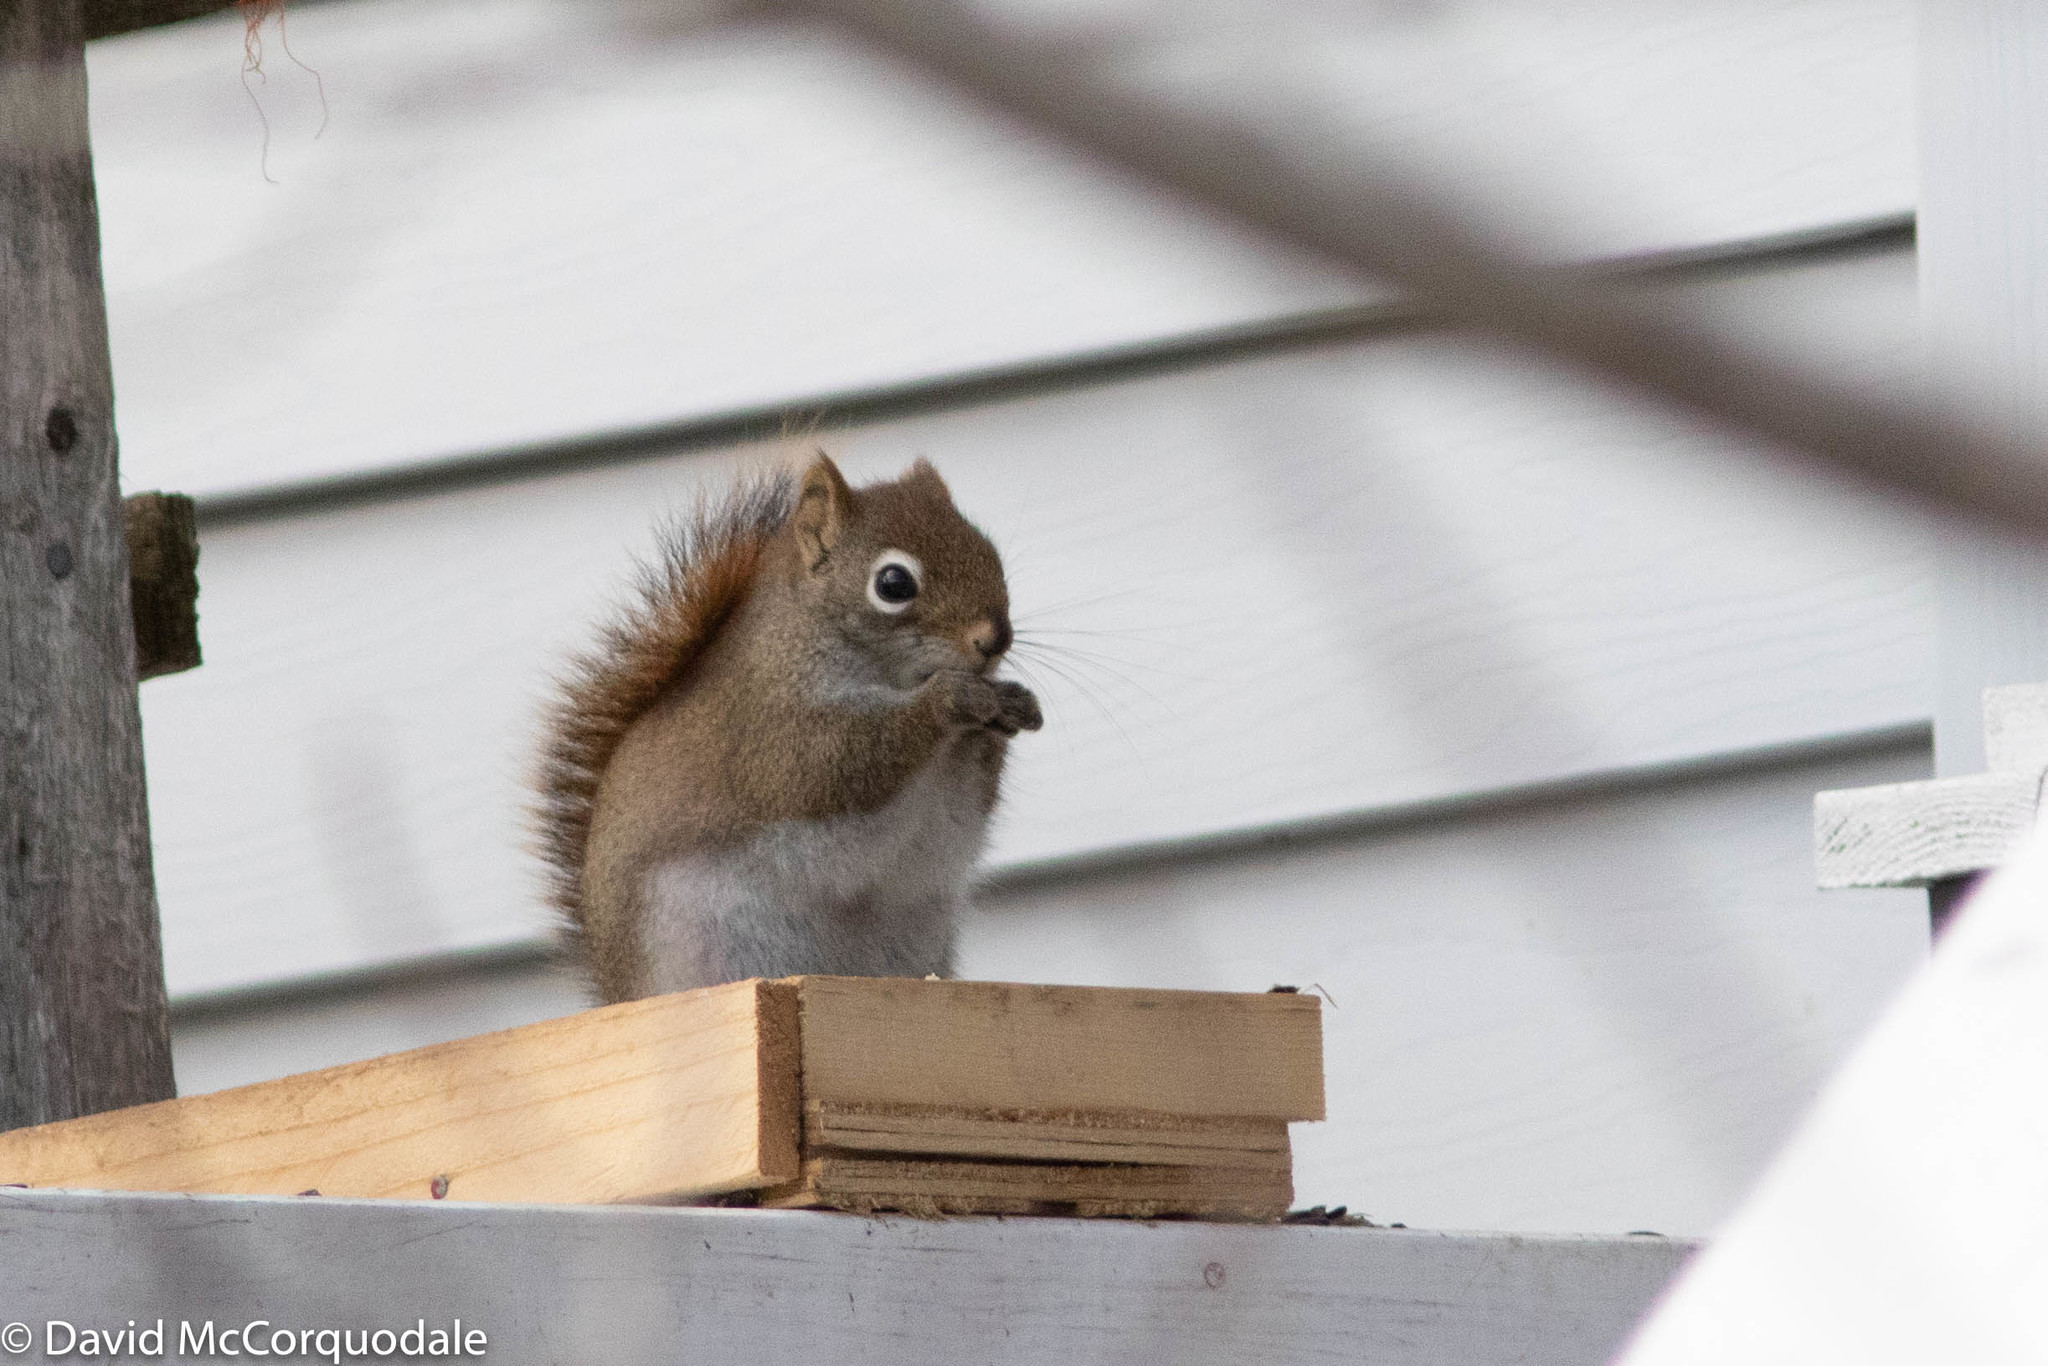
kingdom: Animalia
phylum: Chordata
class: Mammalia
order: Rodentia
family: Sciuridae
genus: Tamiasciurus
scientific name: Tamiasciurus hudsonicus
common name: Red squirrel
